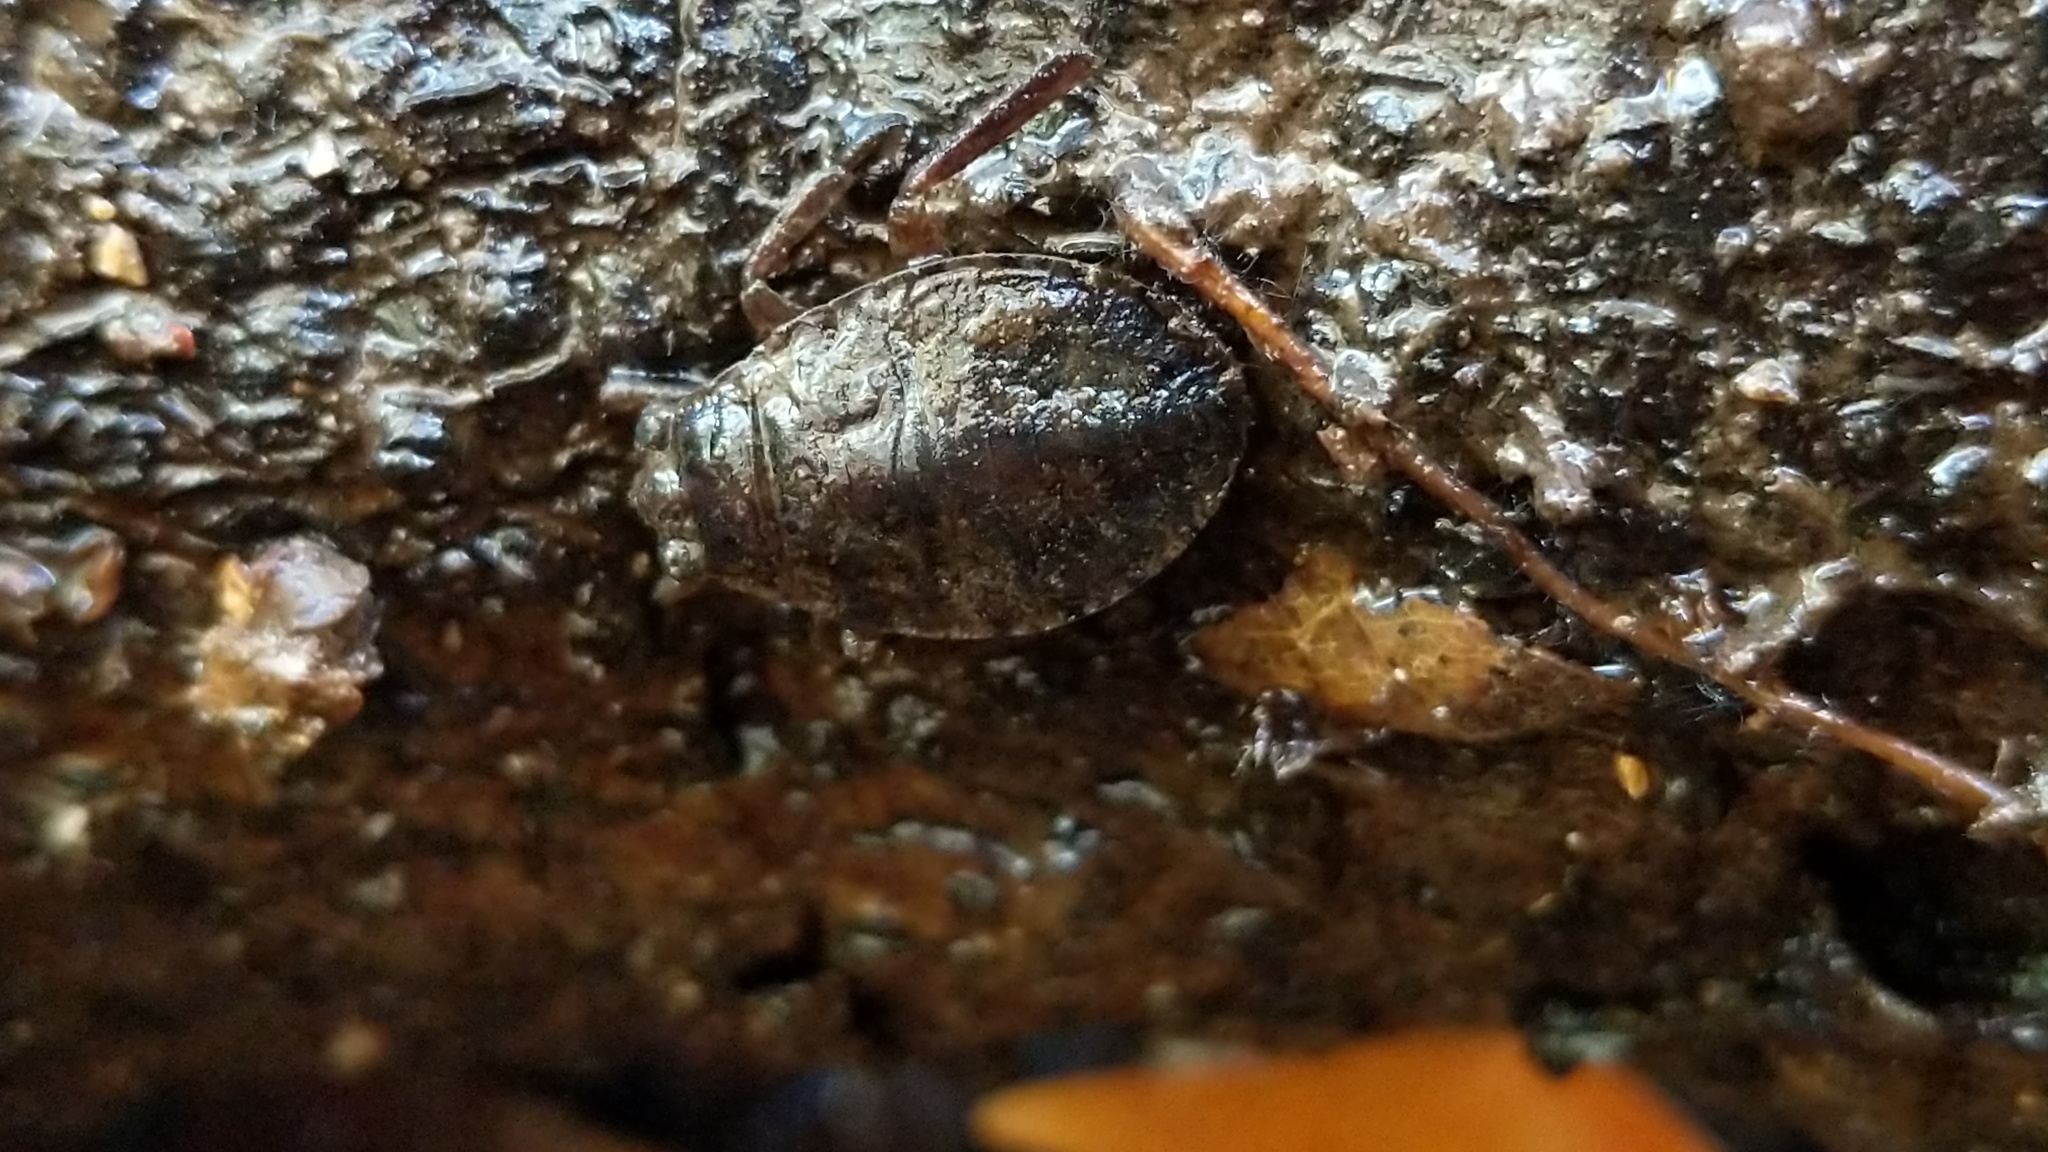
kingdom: Animalia
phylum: Arthropoda
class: Insecta
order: Hemiptera
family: Belostomatidae
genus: Abedus
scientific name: Abedus indentatus
